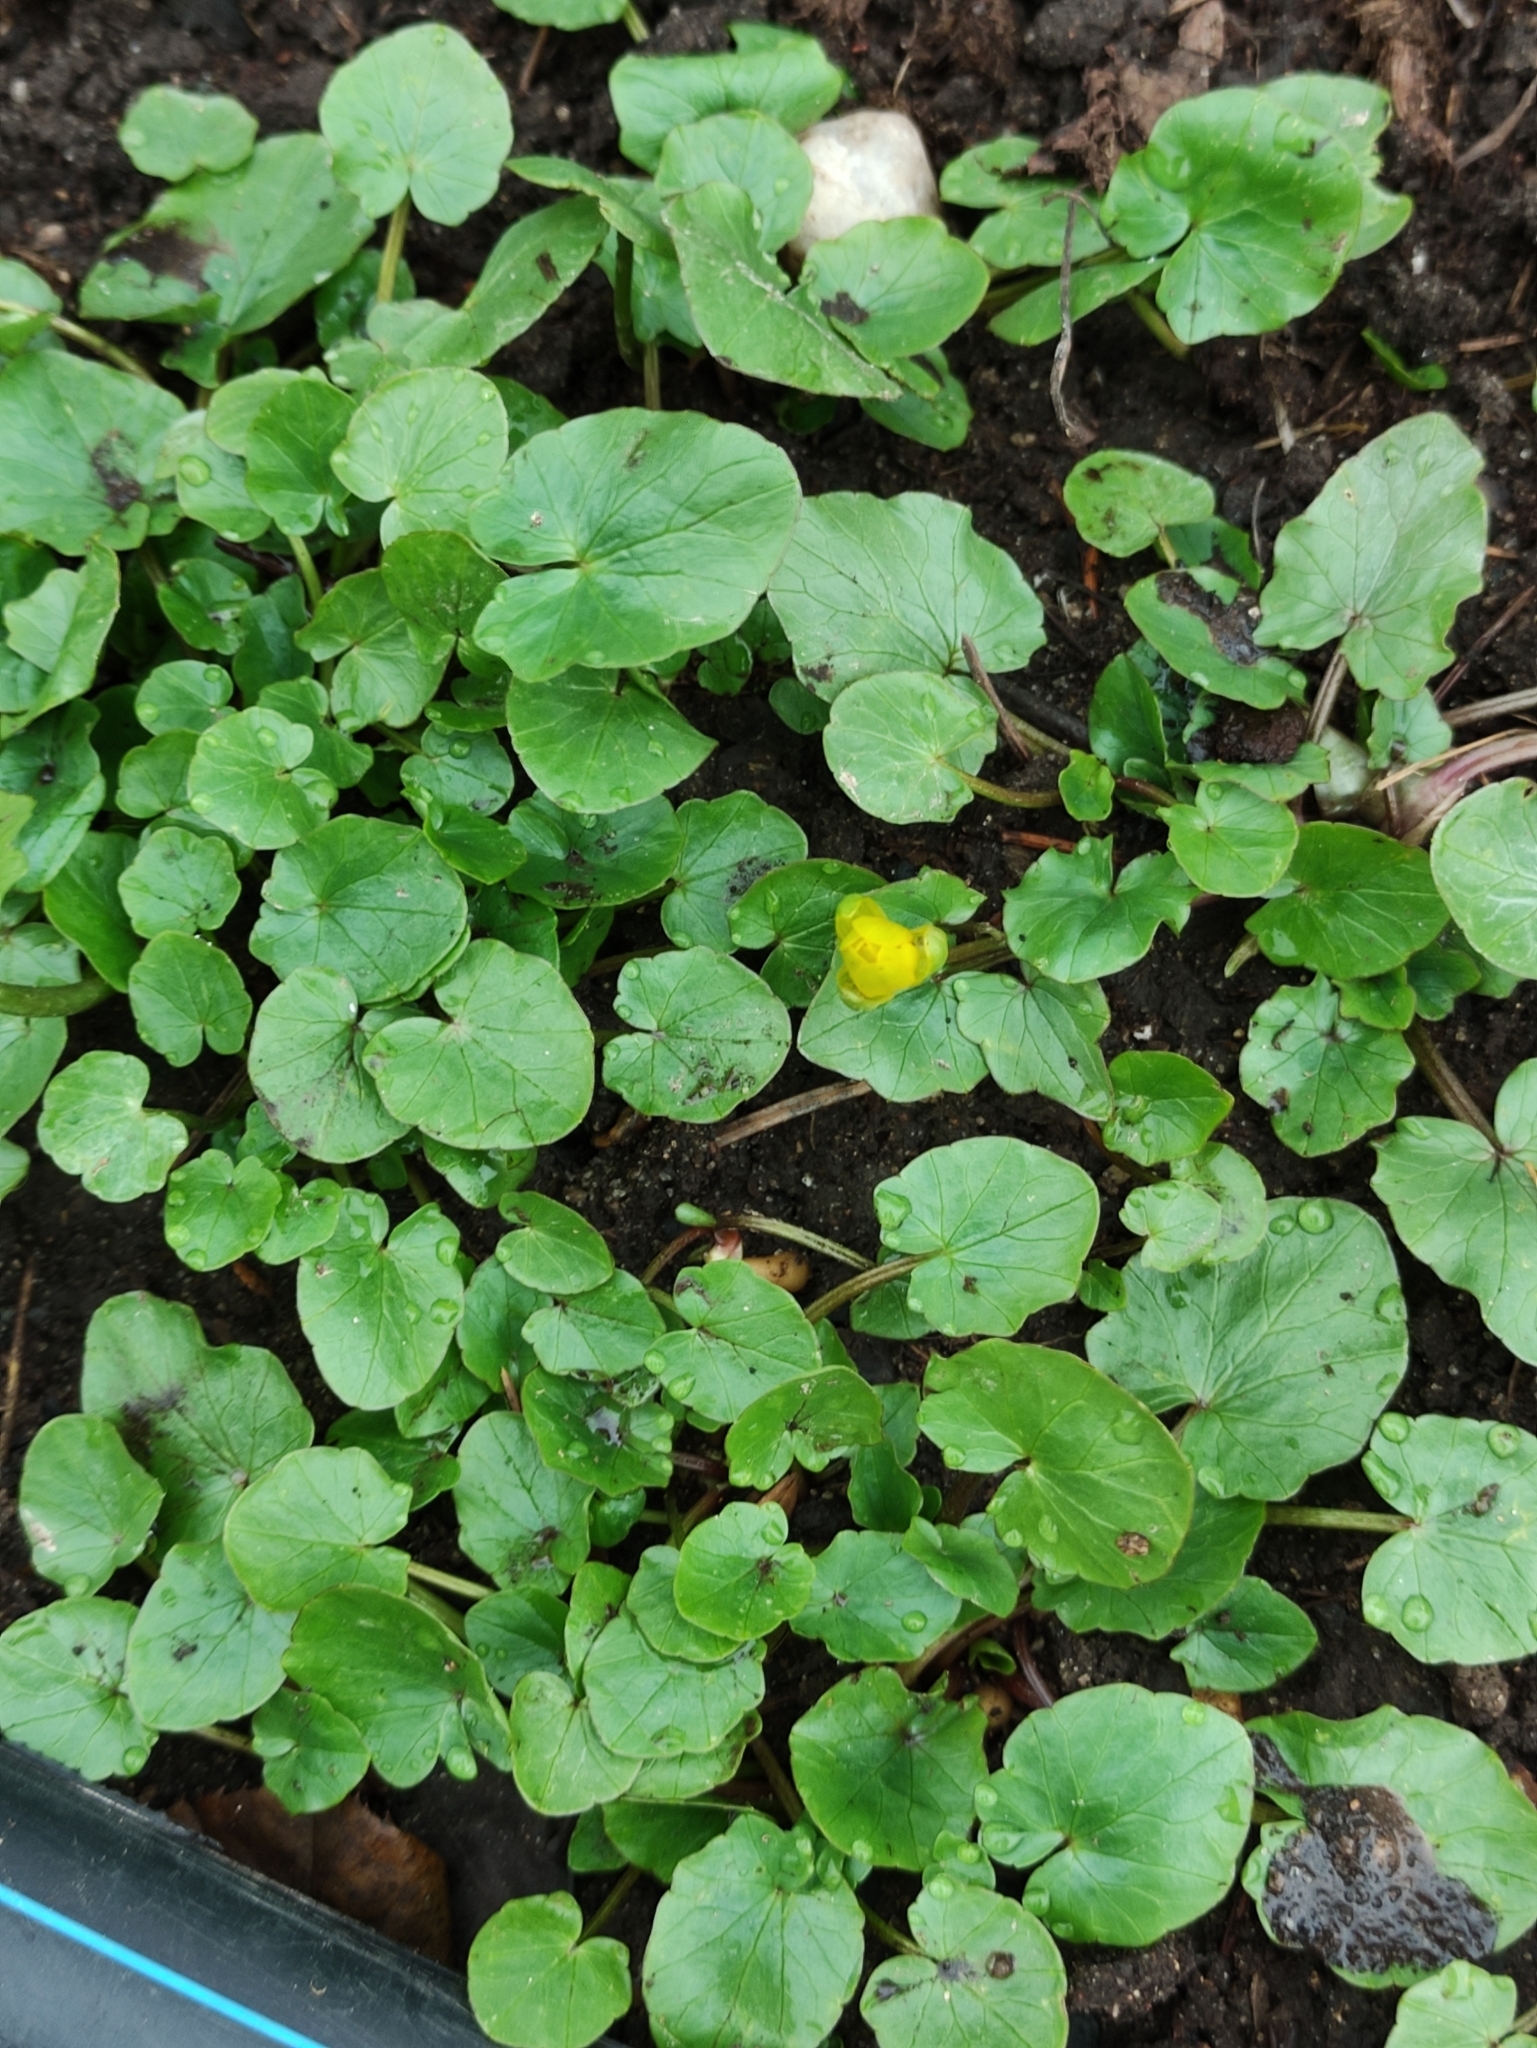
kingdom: Plantae
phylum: Tracheophyta
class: Magnoliopsida
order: Ranunculales
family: Ranunculaceae
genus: Ficaria
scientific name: Ficaria verna
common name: Lesser celandine
